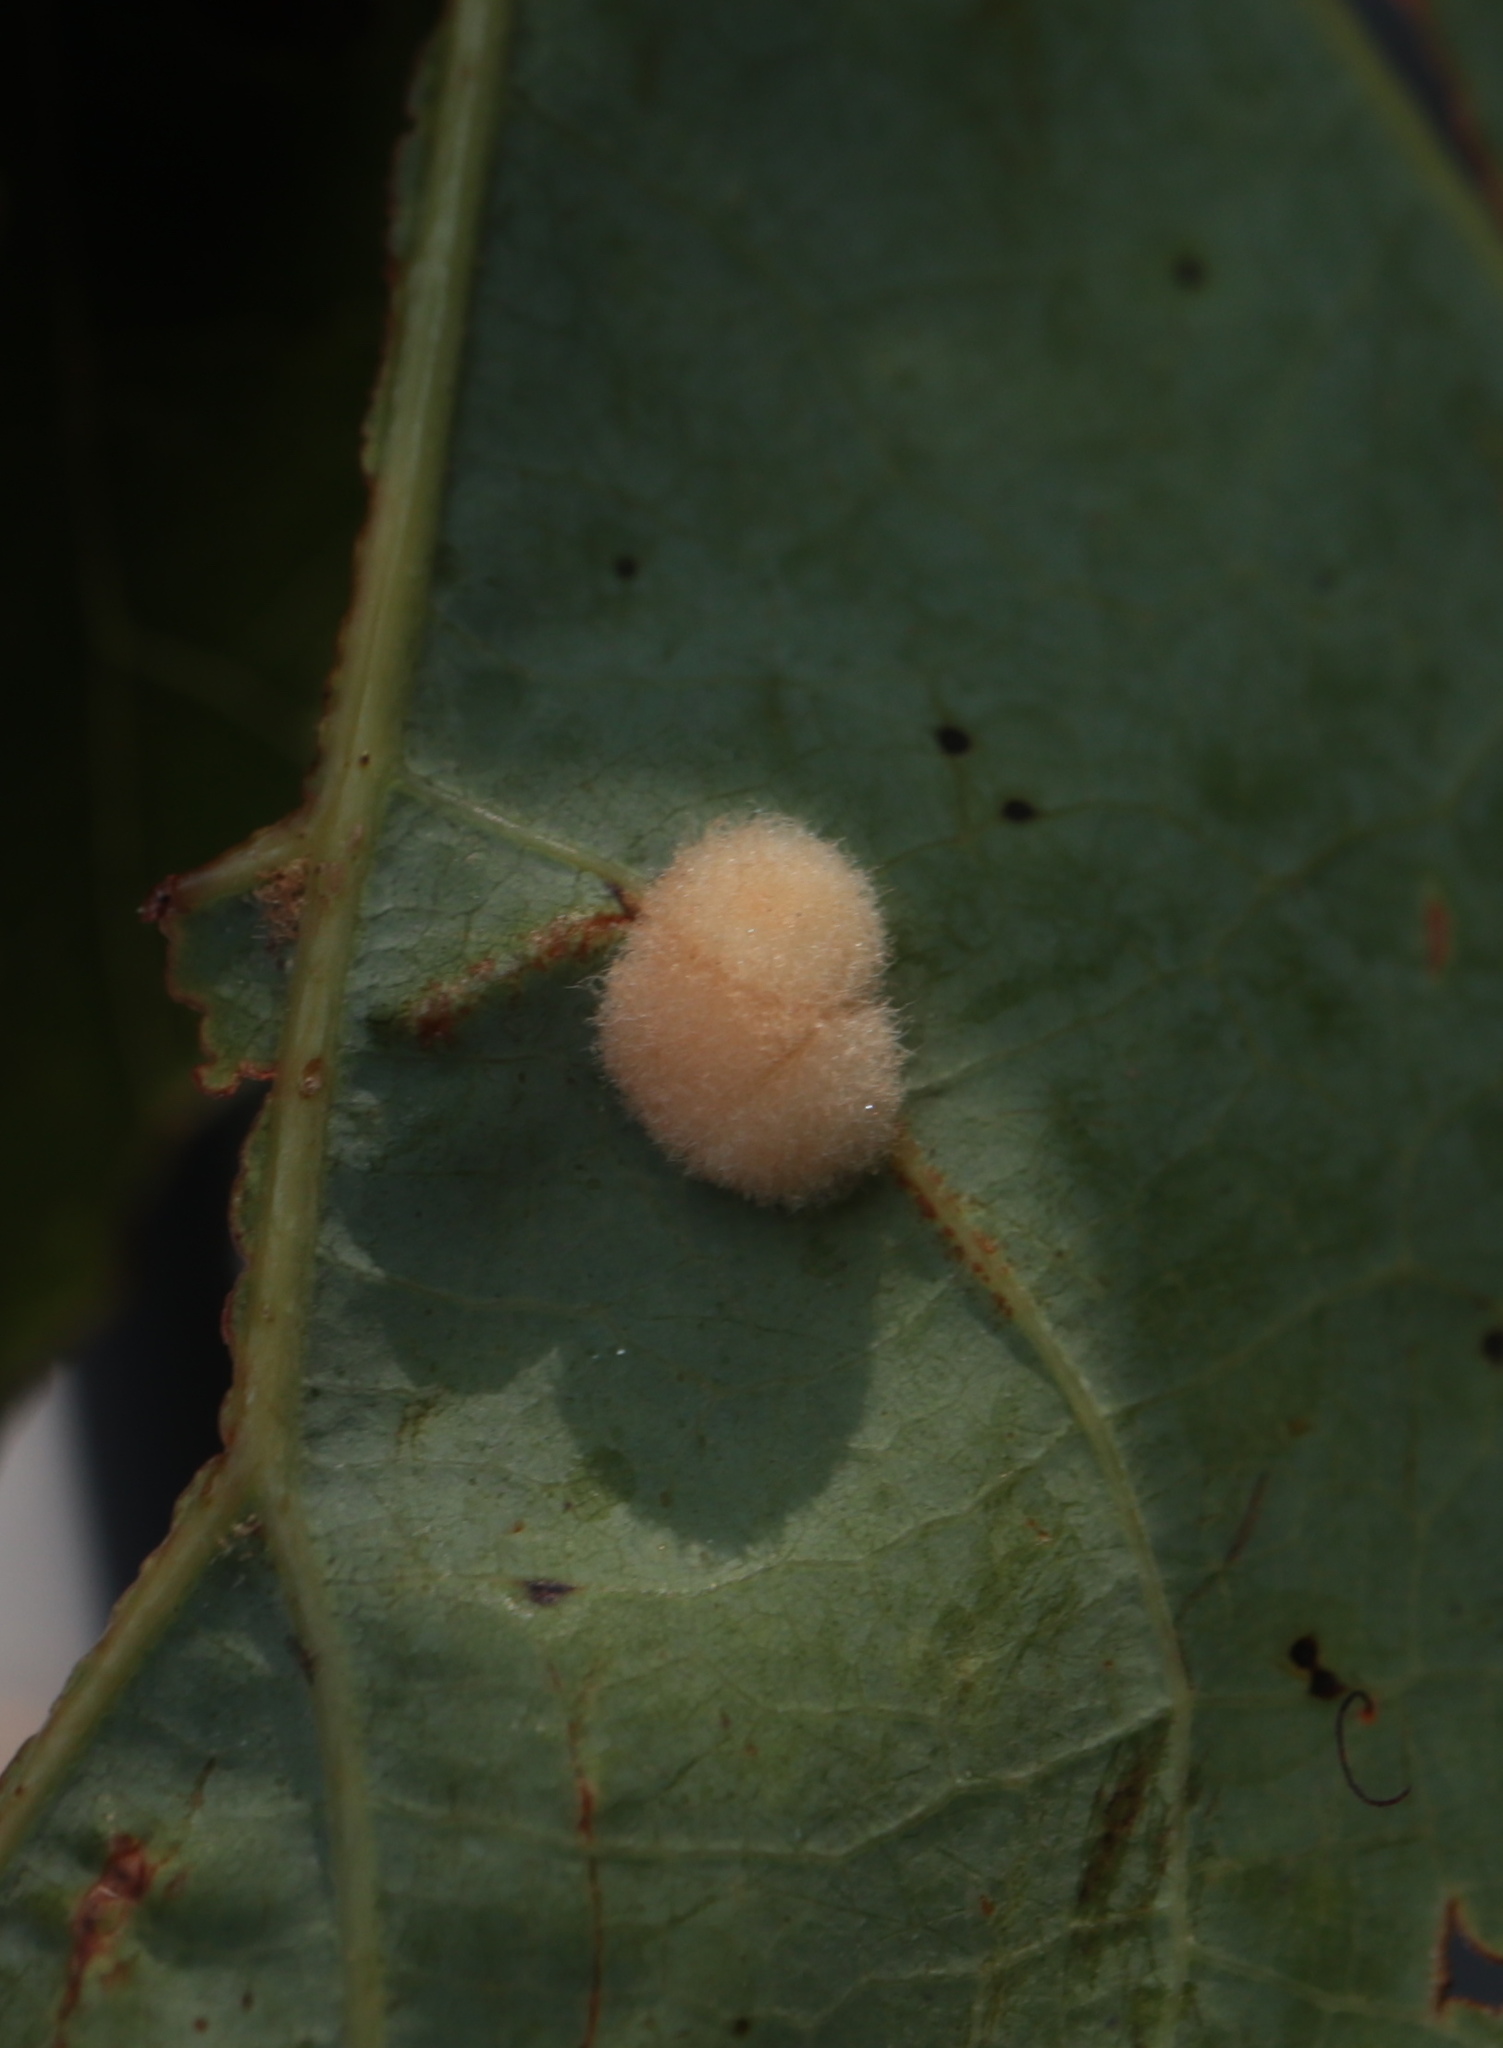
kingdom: Animalia
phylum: Arthropoda
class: Insecta
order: Hymenoptera
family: Cynipidae
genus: Callirhytis
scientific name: Callirhytis
